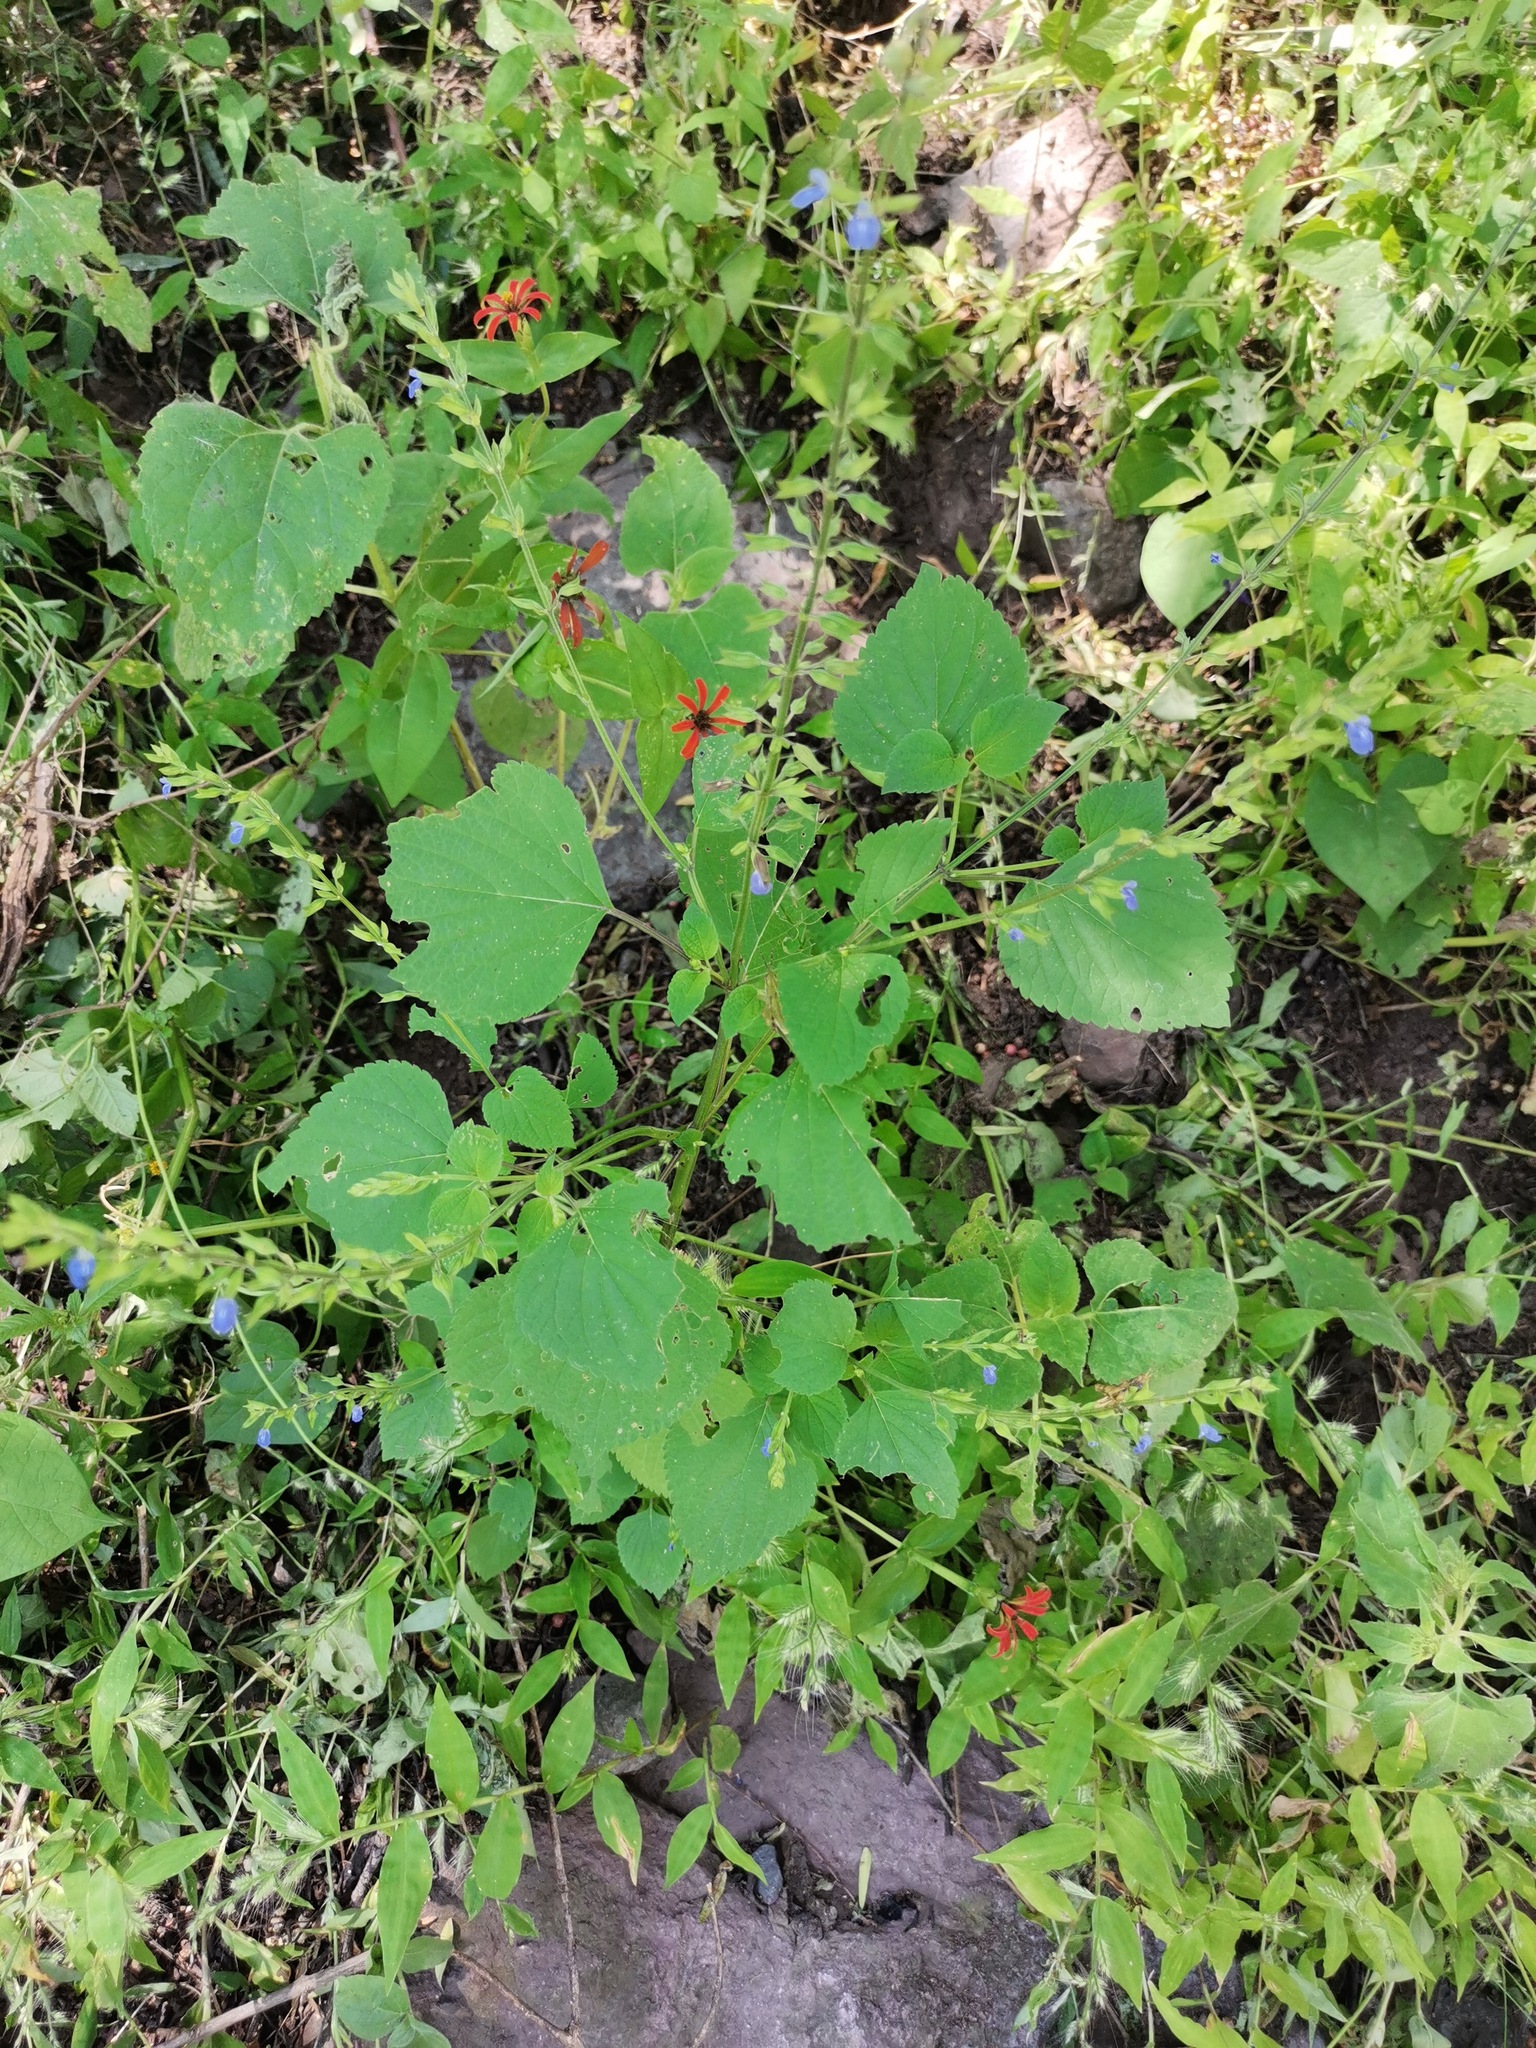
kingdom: Plantae
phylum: Tracheophyta
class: Magnoliopsida
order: Asterales
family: Asteraceae
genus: Zinnia
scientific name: Zinnia peruviana
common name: Peruvian zinnia
